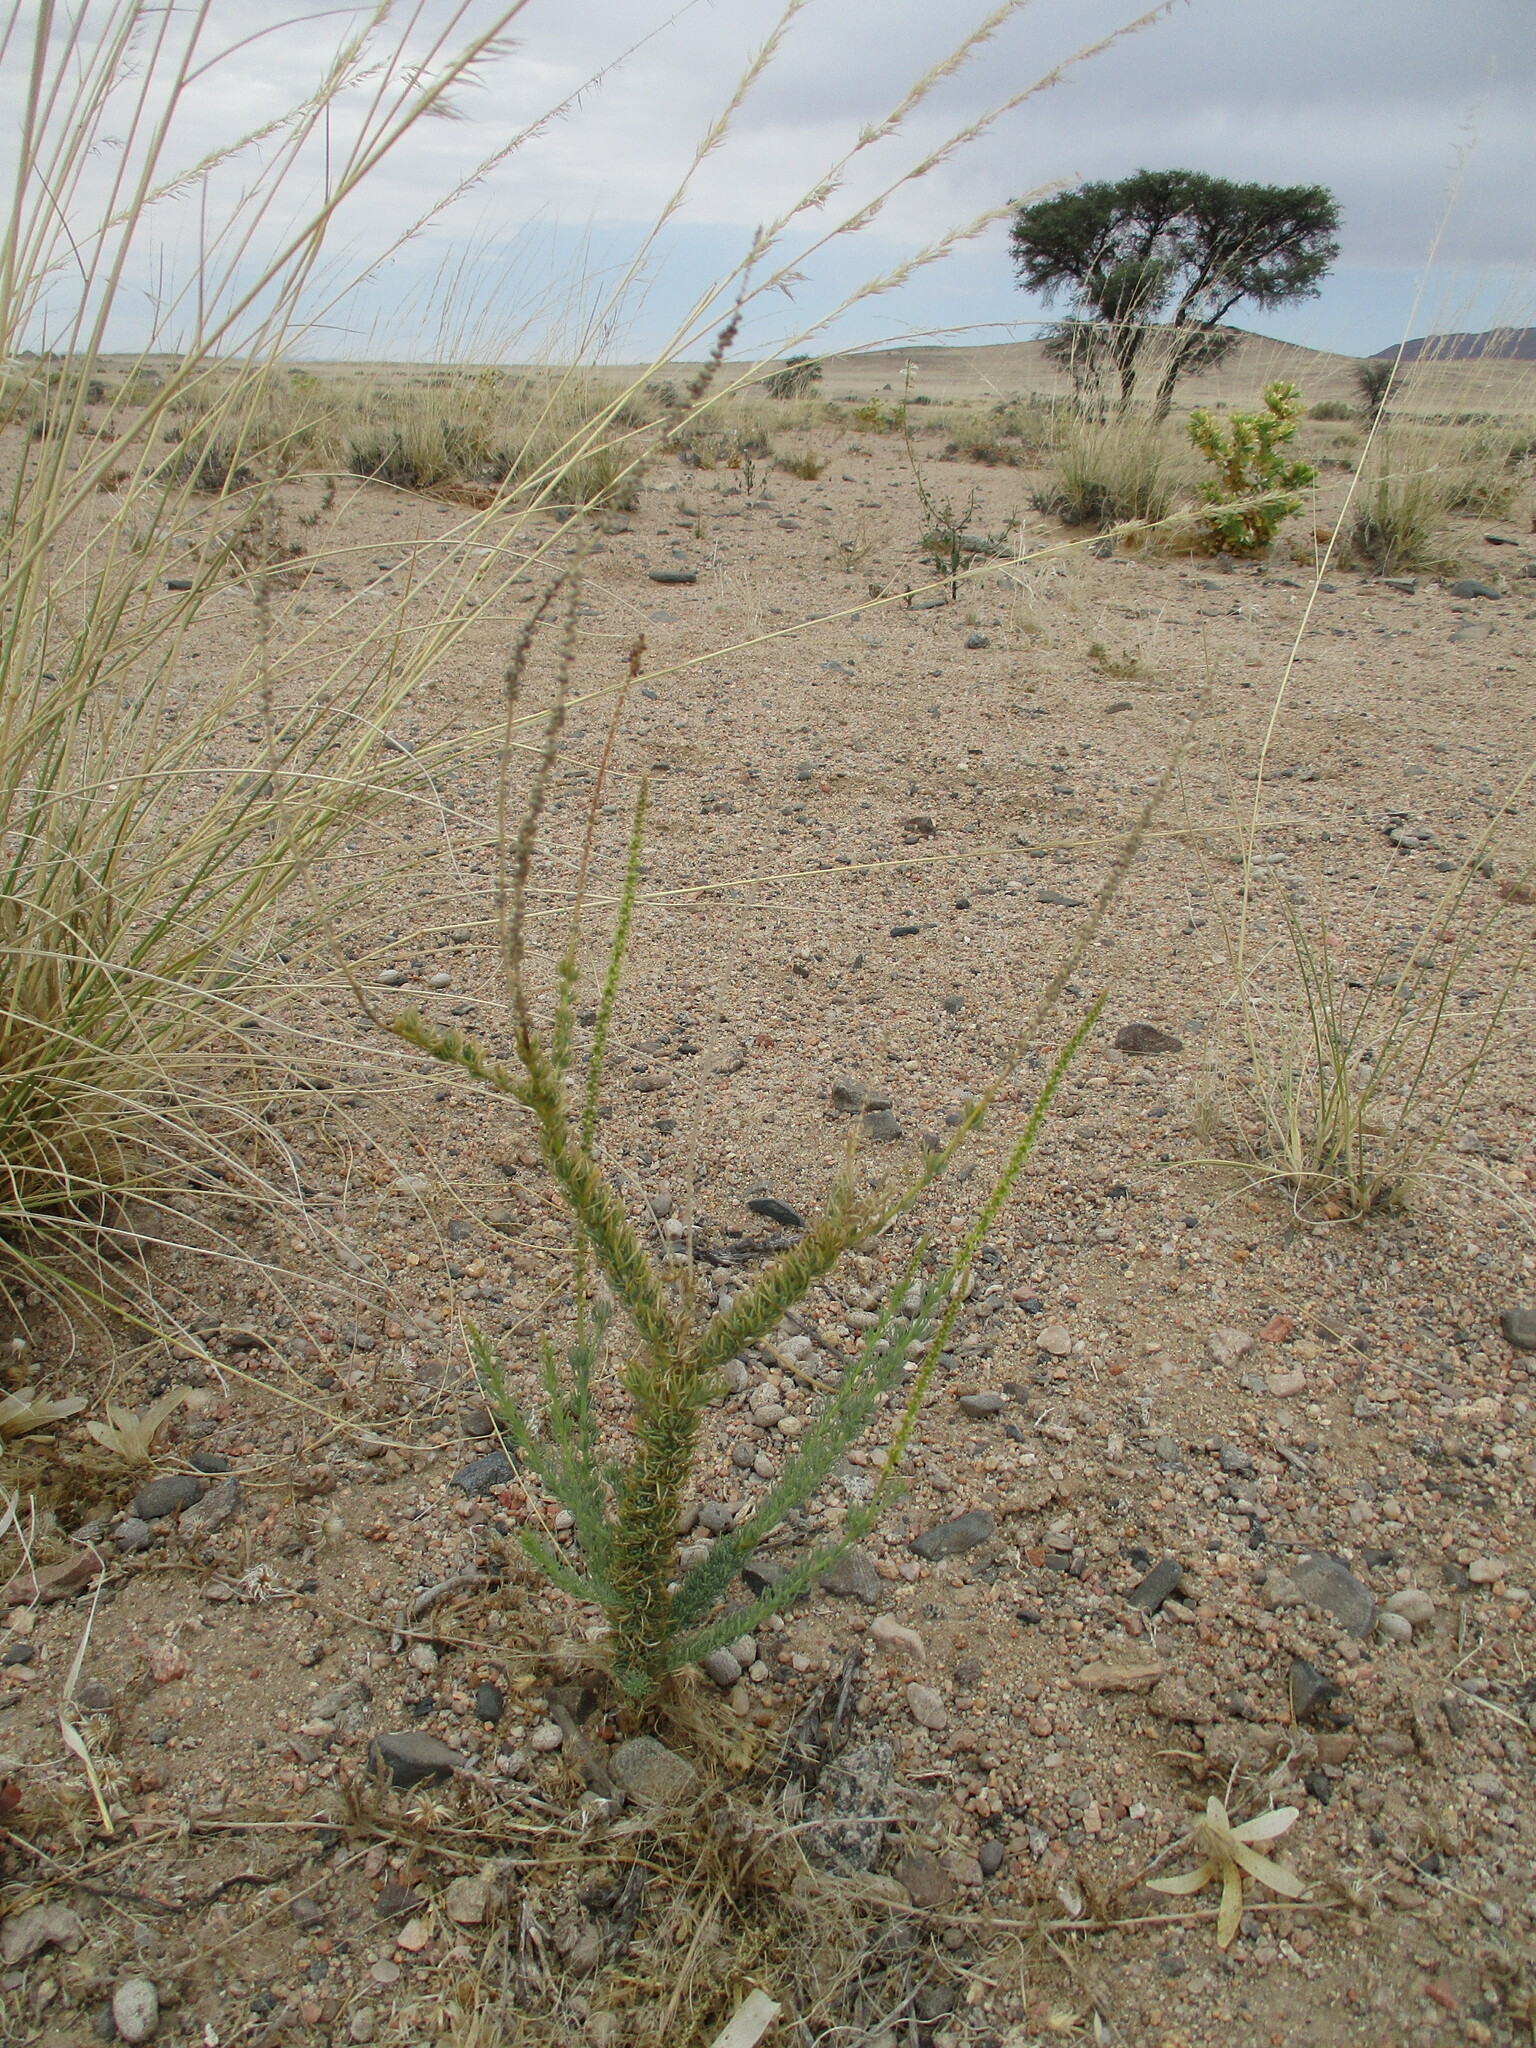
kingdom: Plantae
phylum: Tracheophyta
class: Magnoliopsida
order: Caryophyllales
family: Lophiocarpaceae
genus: Lophiocarpus
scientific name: Lophiocarpus polystachyus
